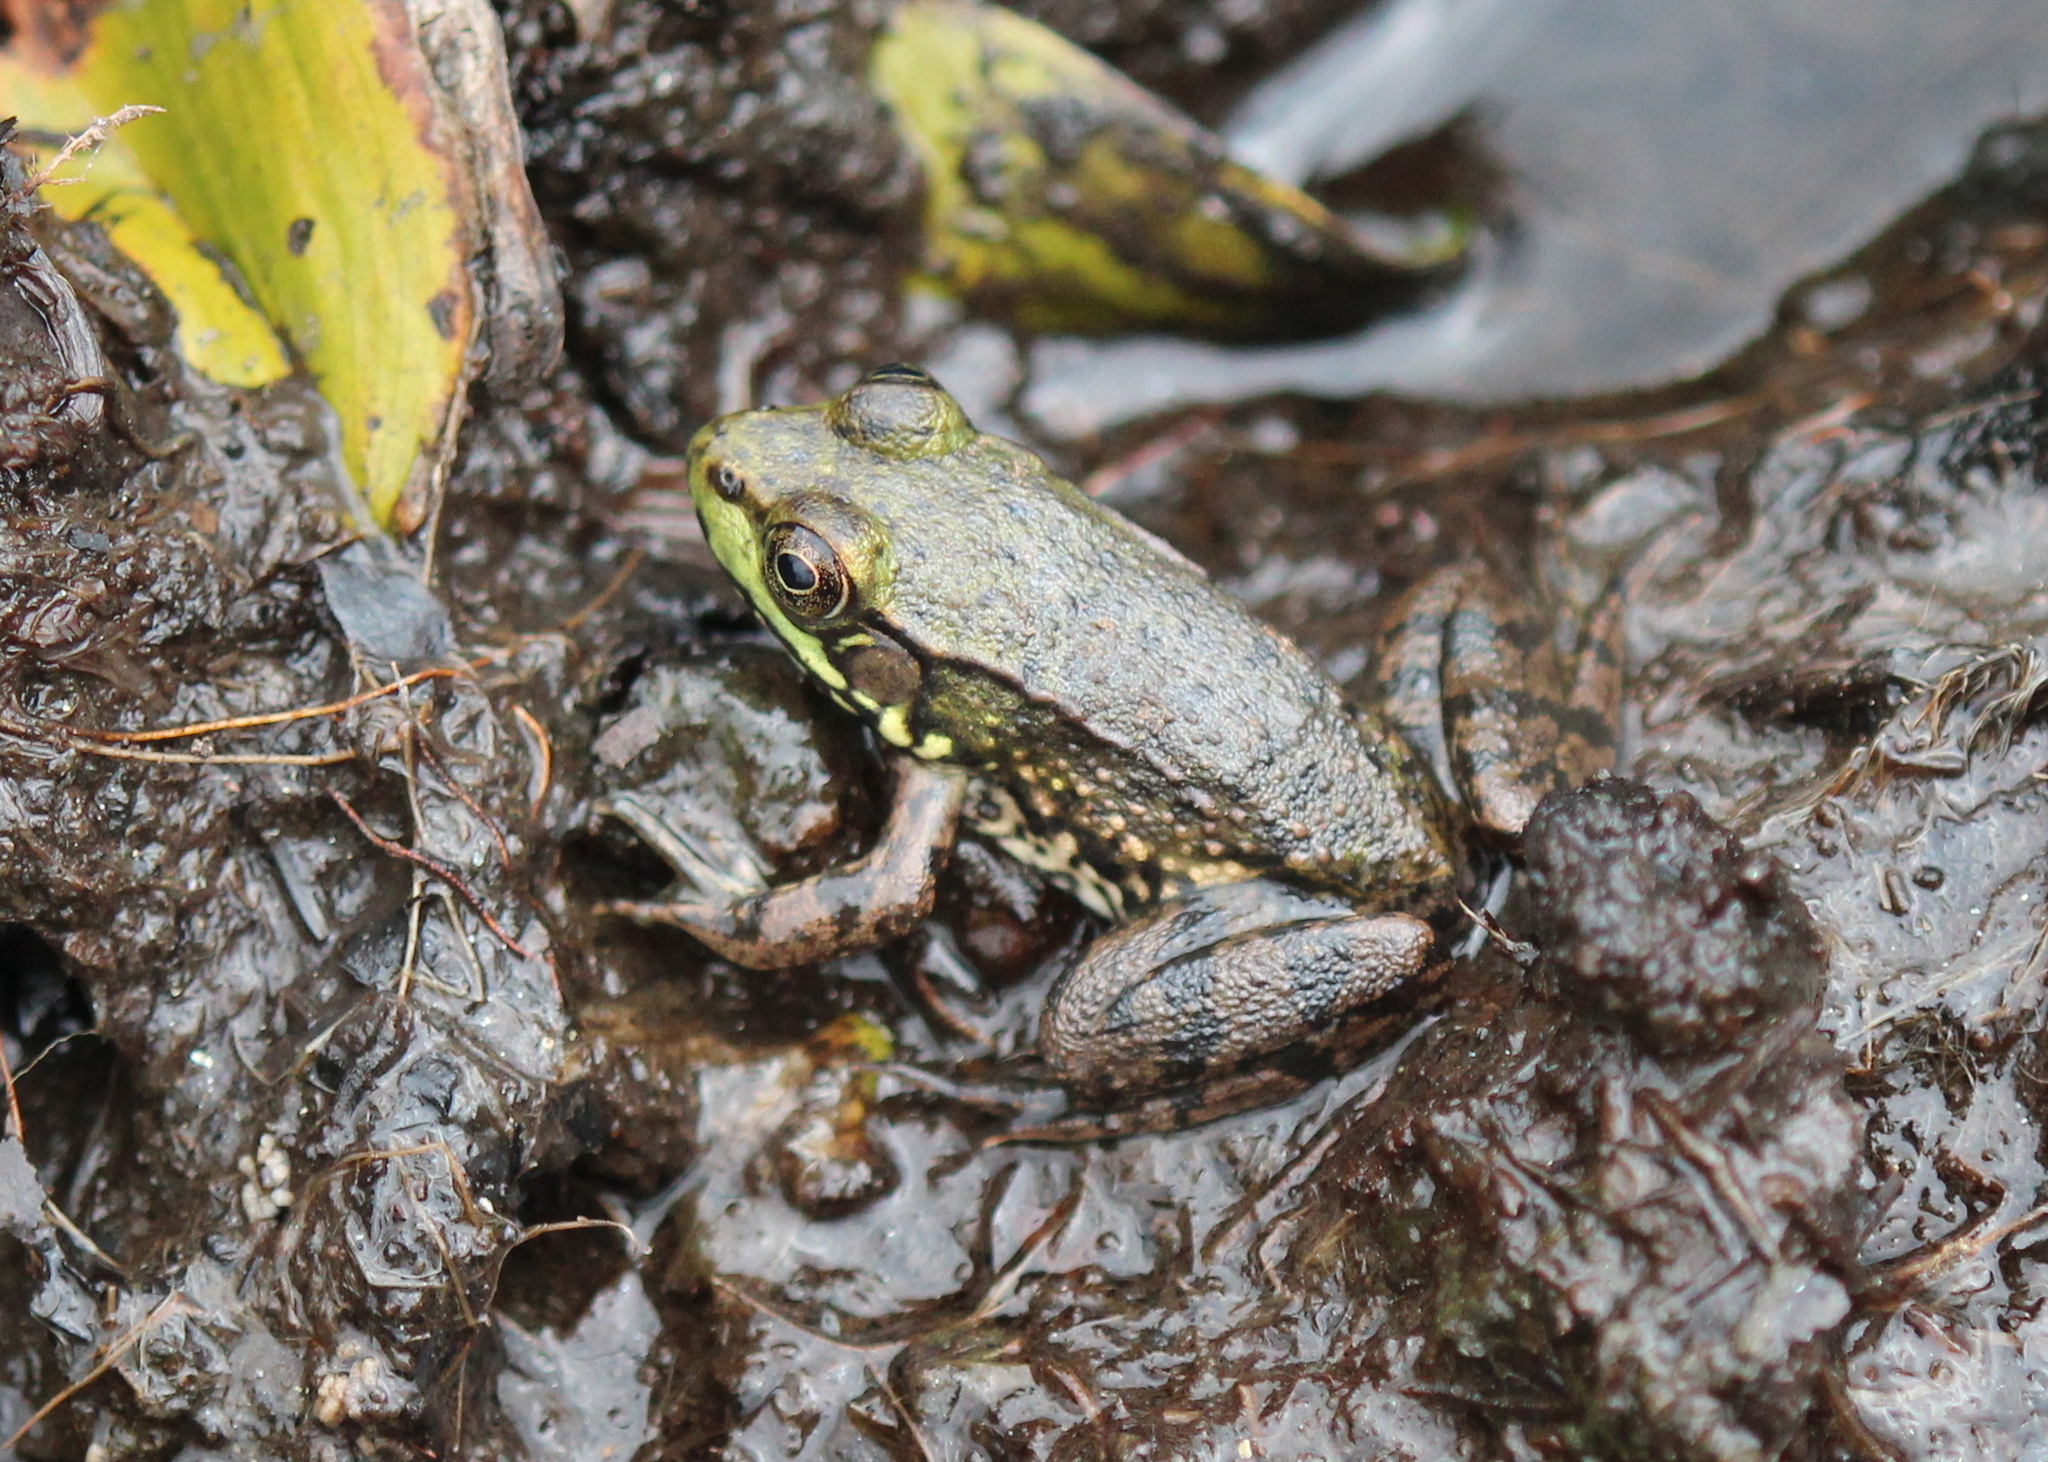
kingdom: Animalia
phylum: Chordata
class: Amphibia
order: Anura
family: Ranidae
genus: Lithobates
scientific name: Lithobates clamitans
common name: Green frog
